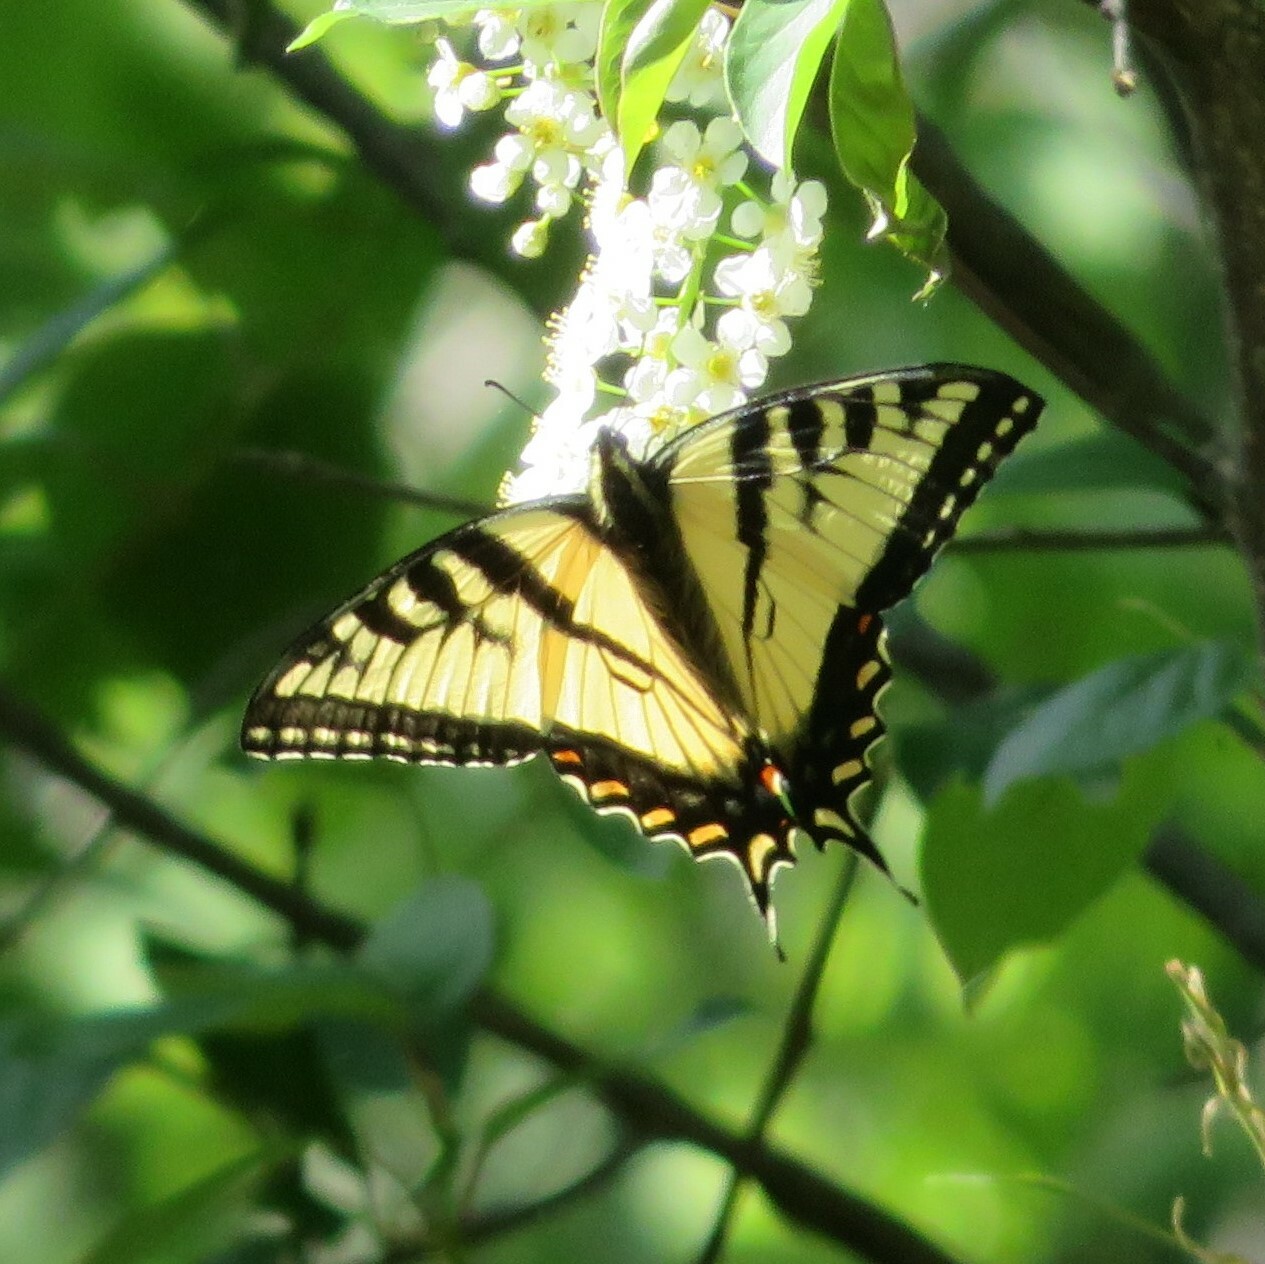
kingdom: Animalia
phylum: Arthropoda
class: Insecta
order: Lepidoptera
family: Papilionidae
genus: Papilio
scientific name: Papilio canadensis
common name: Canadian tiger swallowtail
